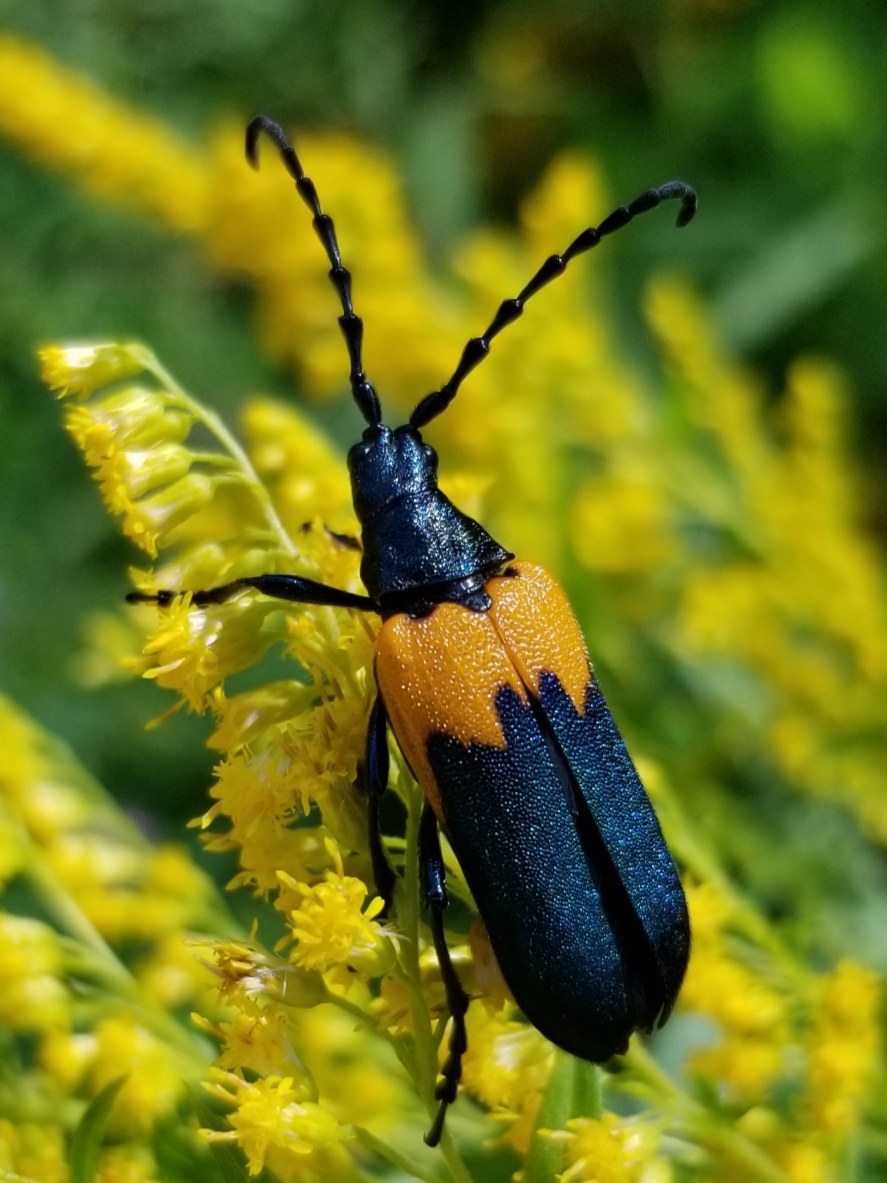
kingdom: Animalia
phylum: Arthropoda
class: Insecta
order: Coleoptera
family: Cerambycidae
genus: Desmocerus
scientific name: Desmocerus palliatus
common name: Eastern elderberry borer
